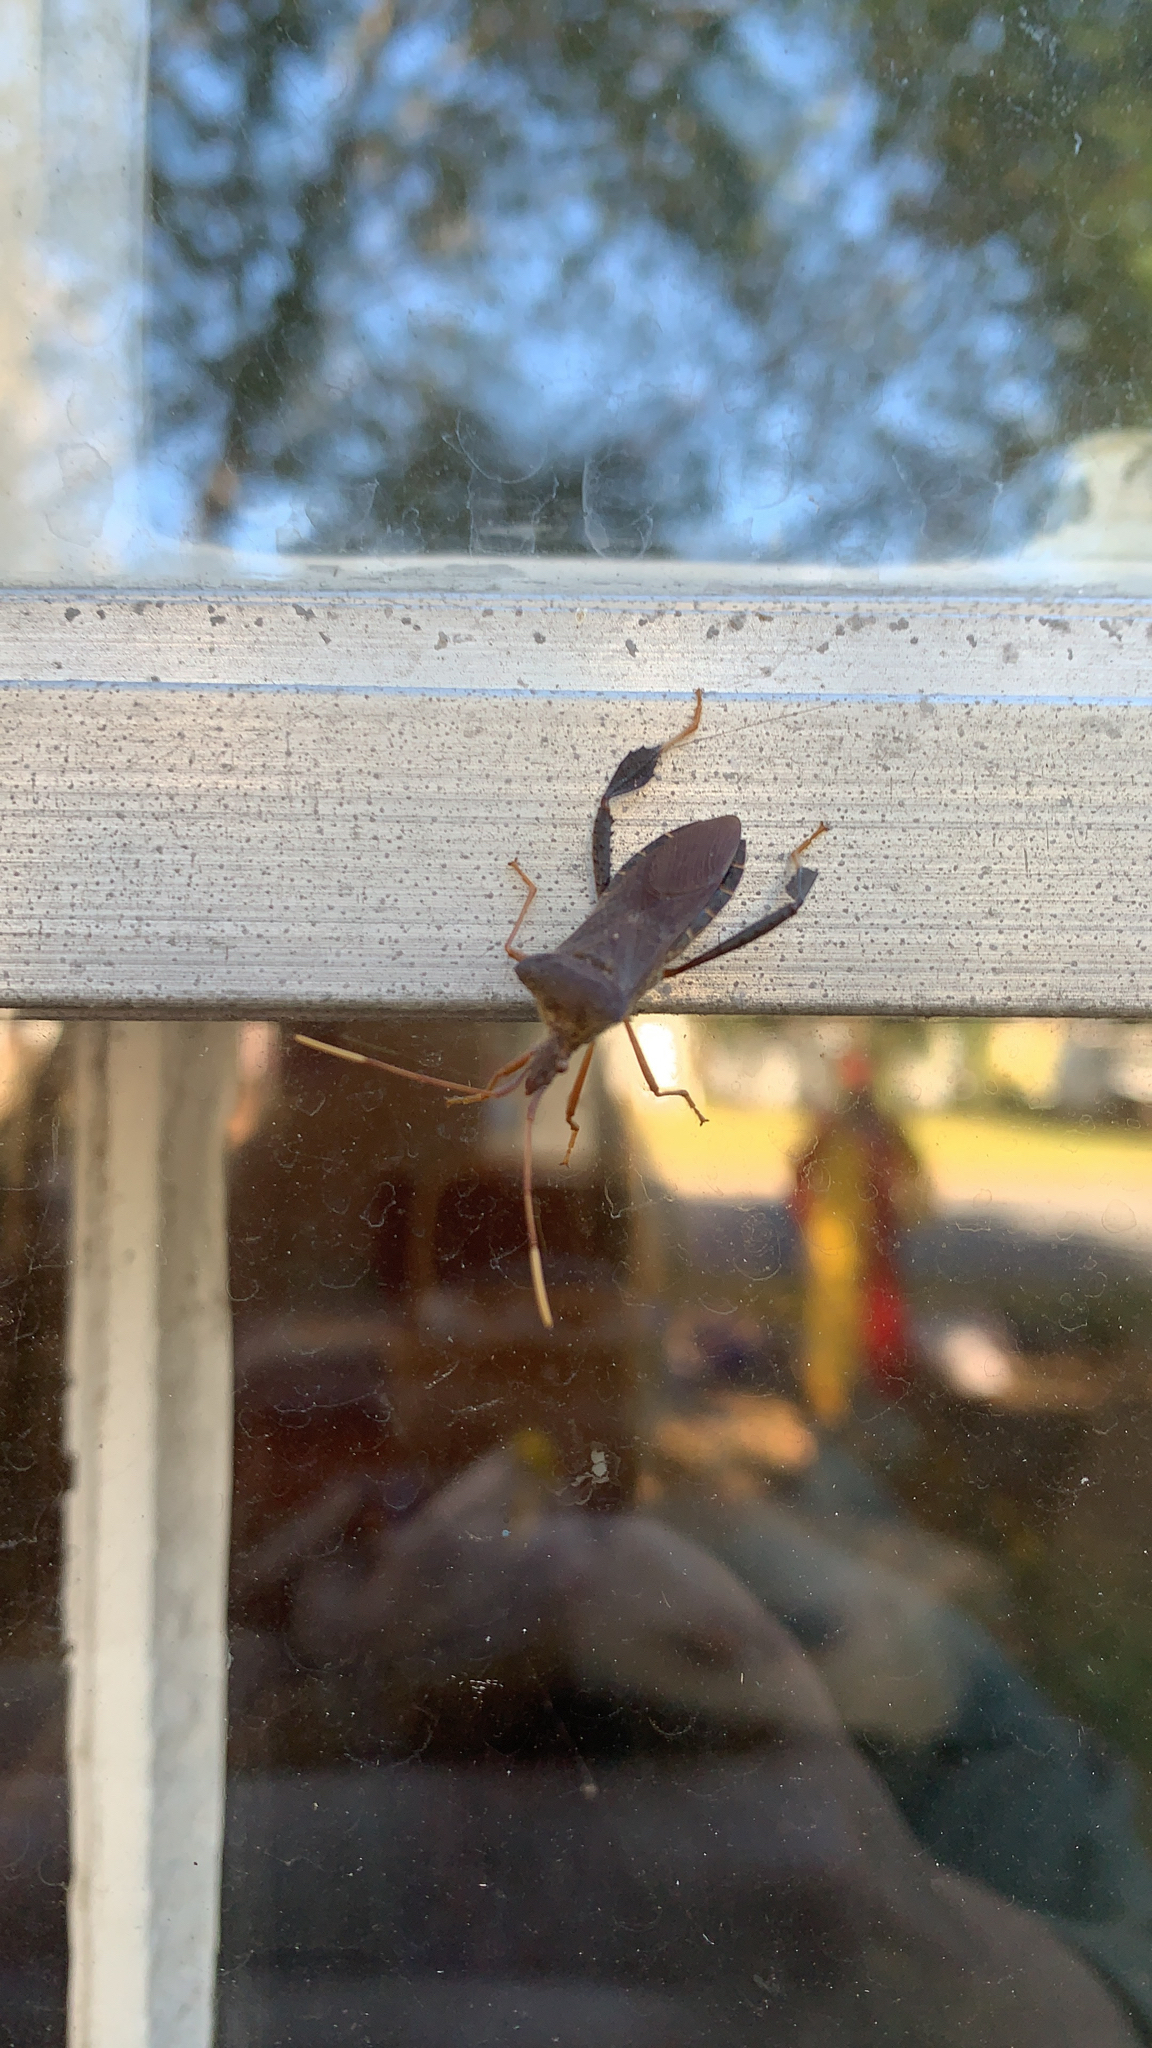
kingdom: Animalia
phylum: Arthropoda
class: Insecta
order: Hemiptera
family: Coreidae
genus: Leptoglossus
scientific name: Leptoglossus fulvicornis
